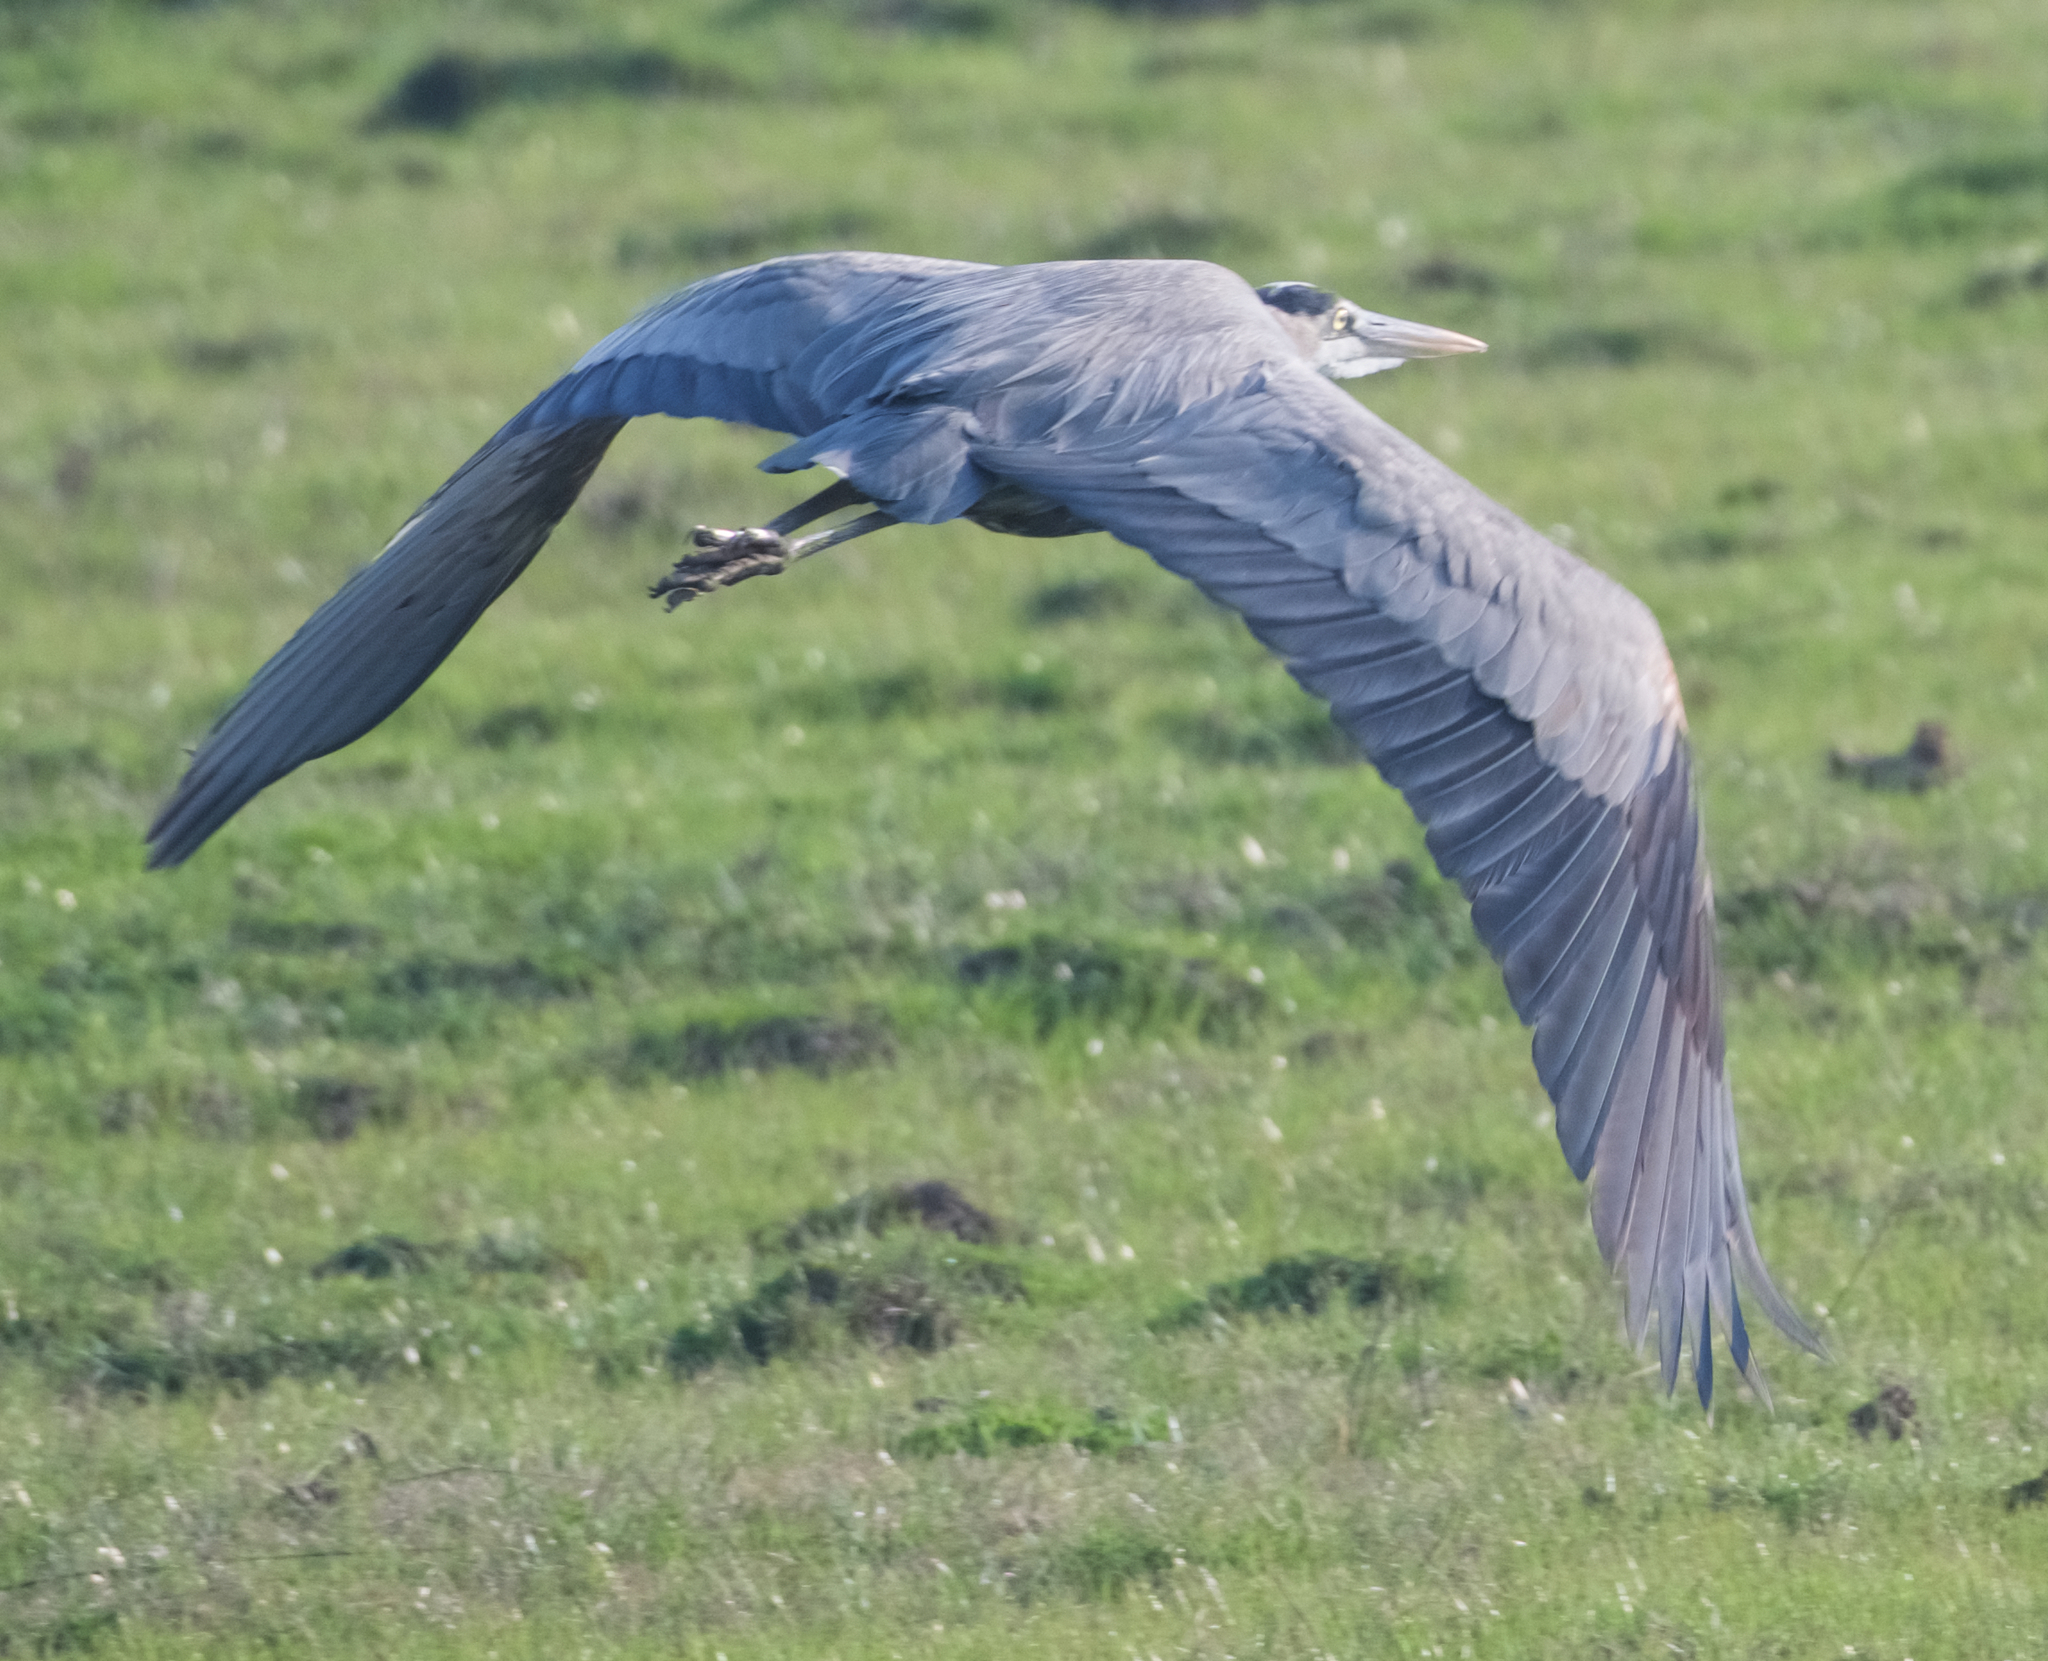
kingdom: Animalia
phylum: Chordata
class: Aves
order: Pelecaniformes
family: Ardeidae
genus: Ardea
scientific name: Ardea herodias
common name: Great blue heron
